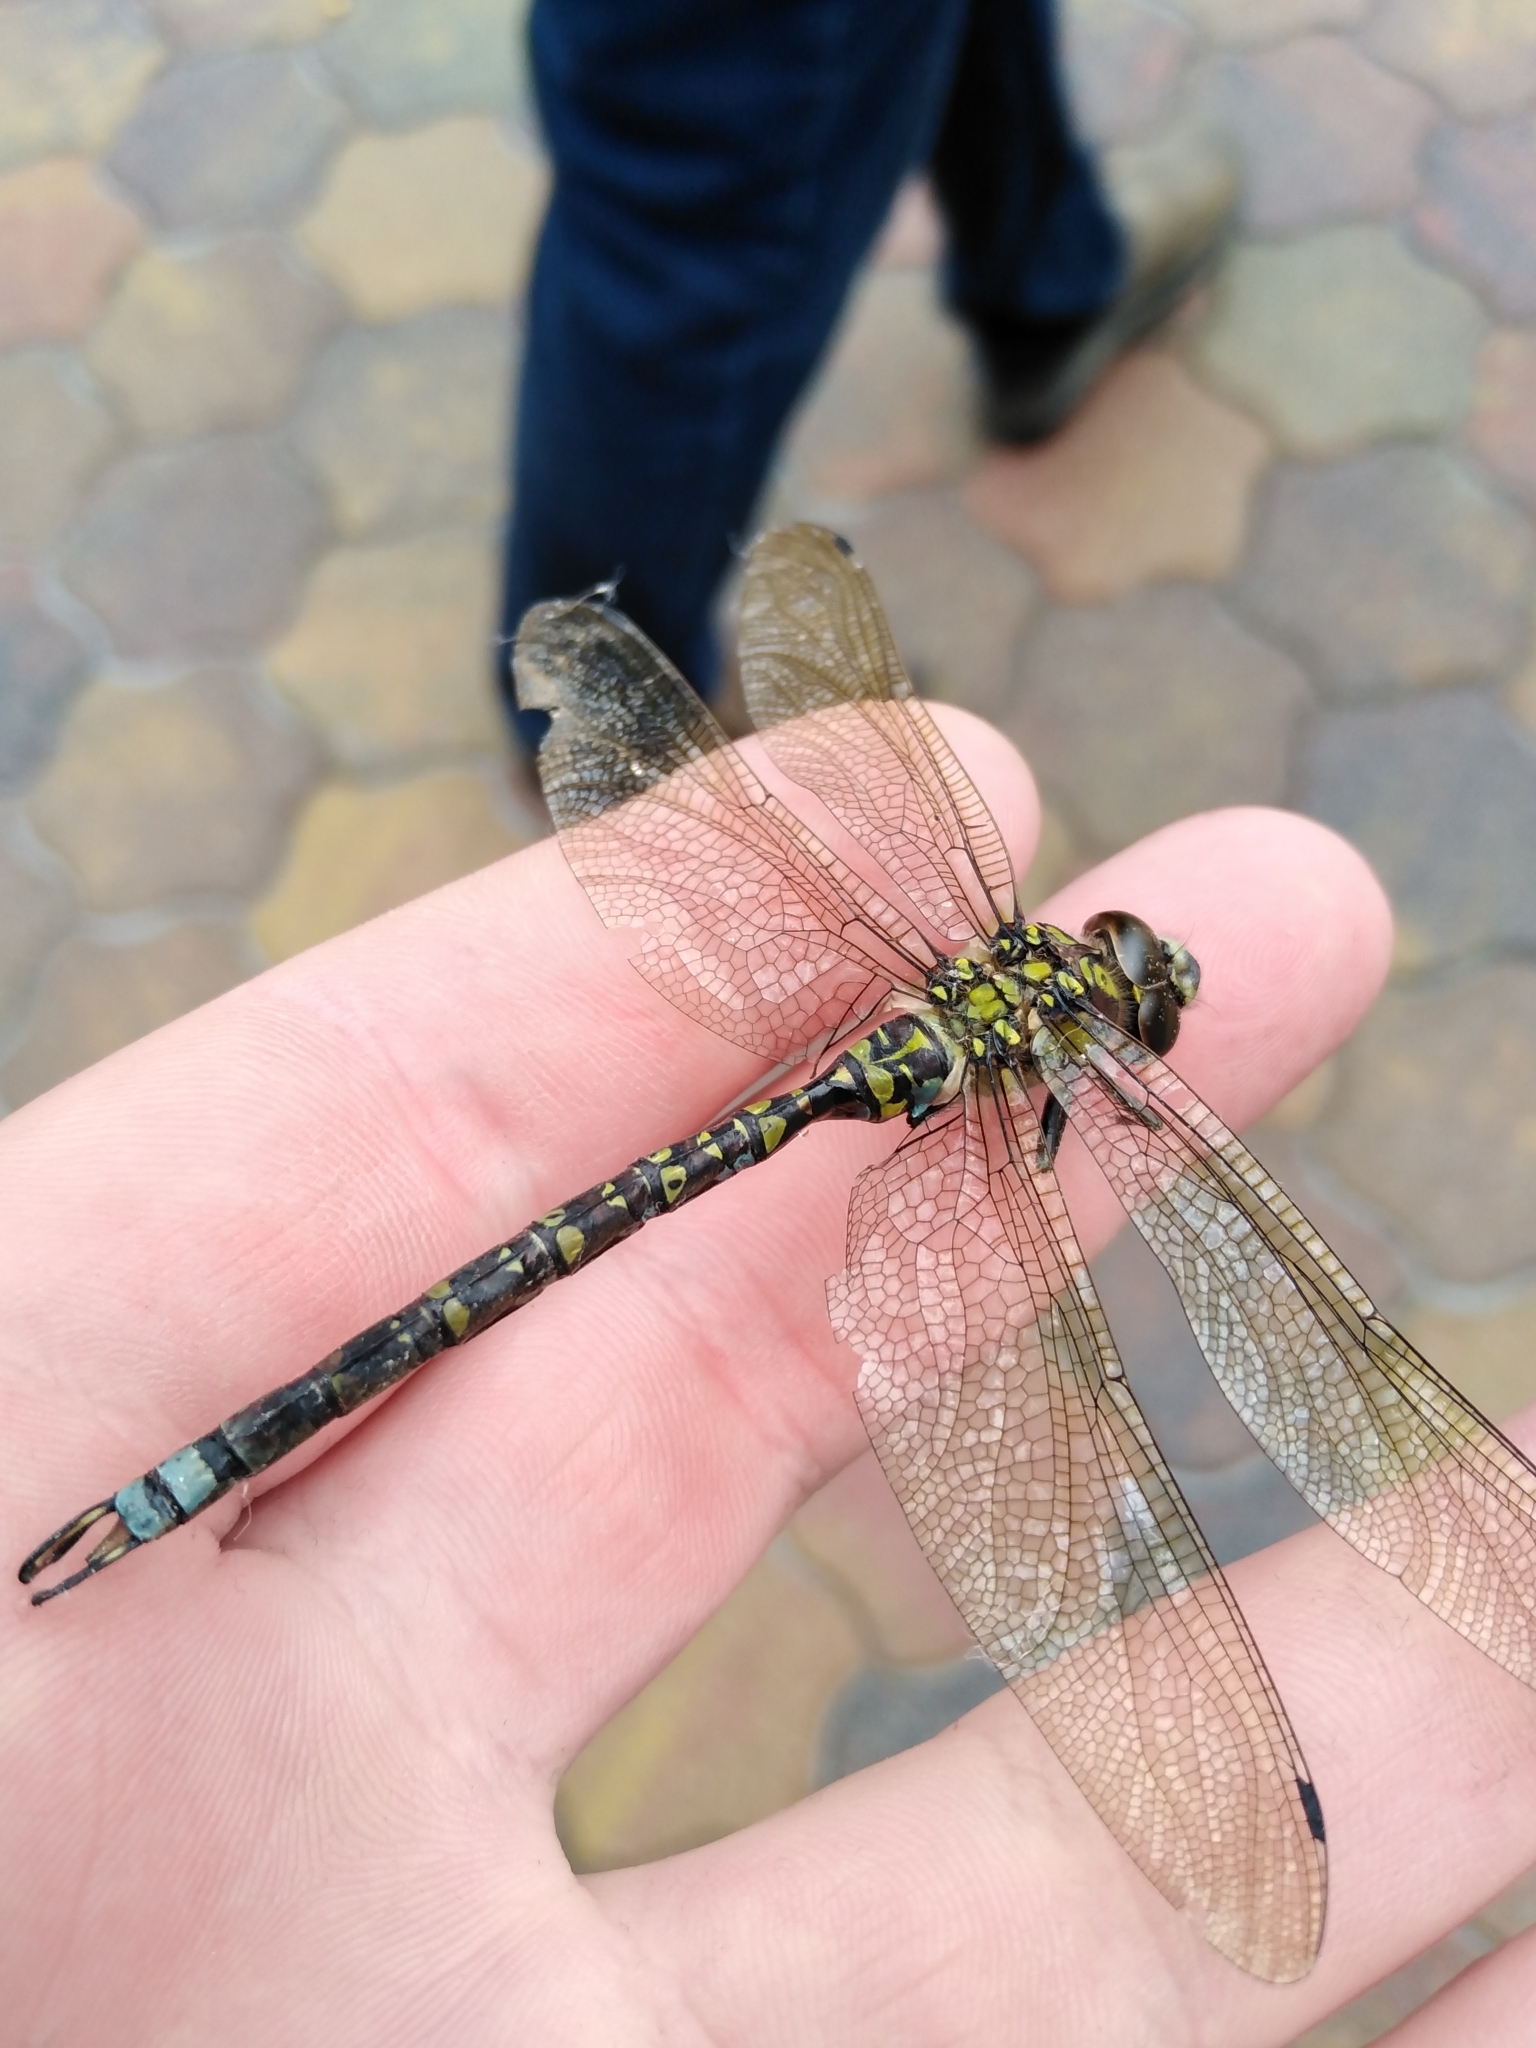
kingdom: Animalia
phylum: Arthropoda
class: Insecta
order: Odonata
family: Aeshnidae
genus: Aeshna
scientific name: Aeshna cyanea
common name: Southern hawker
